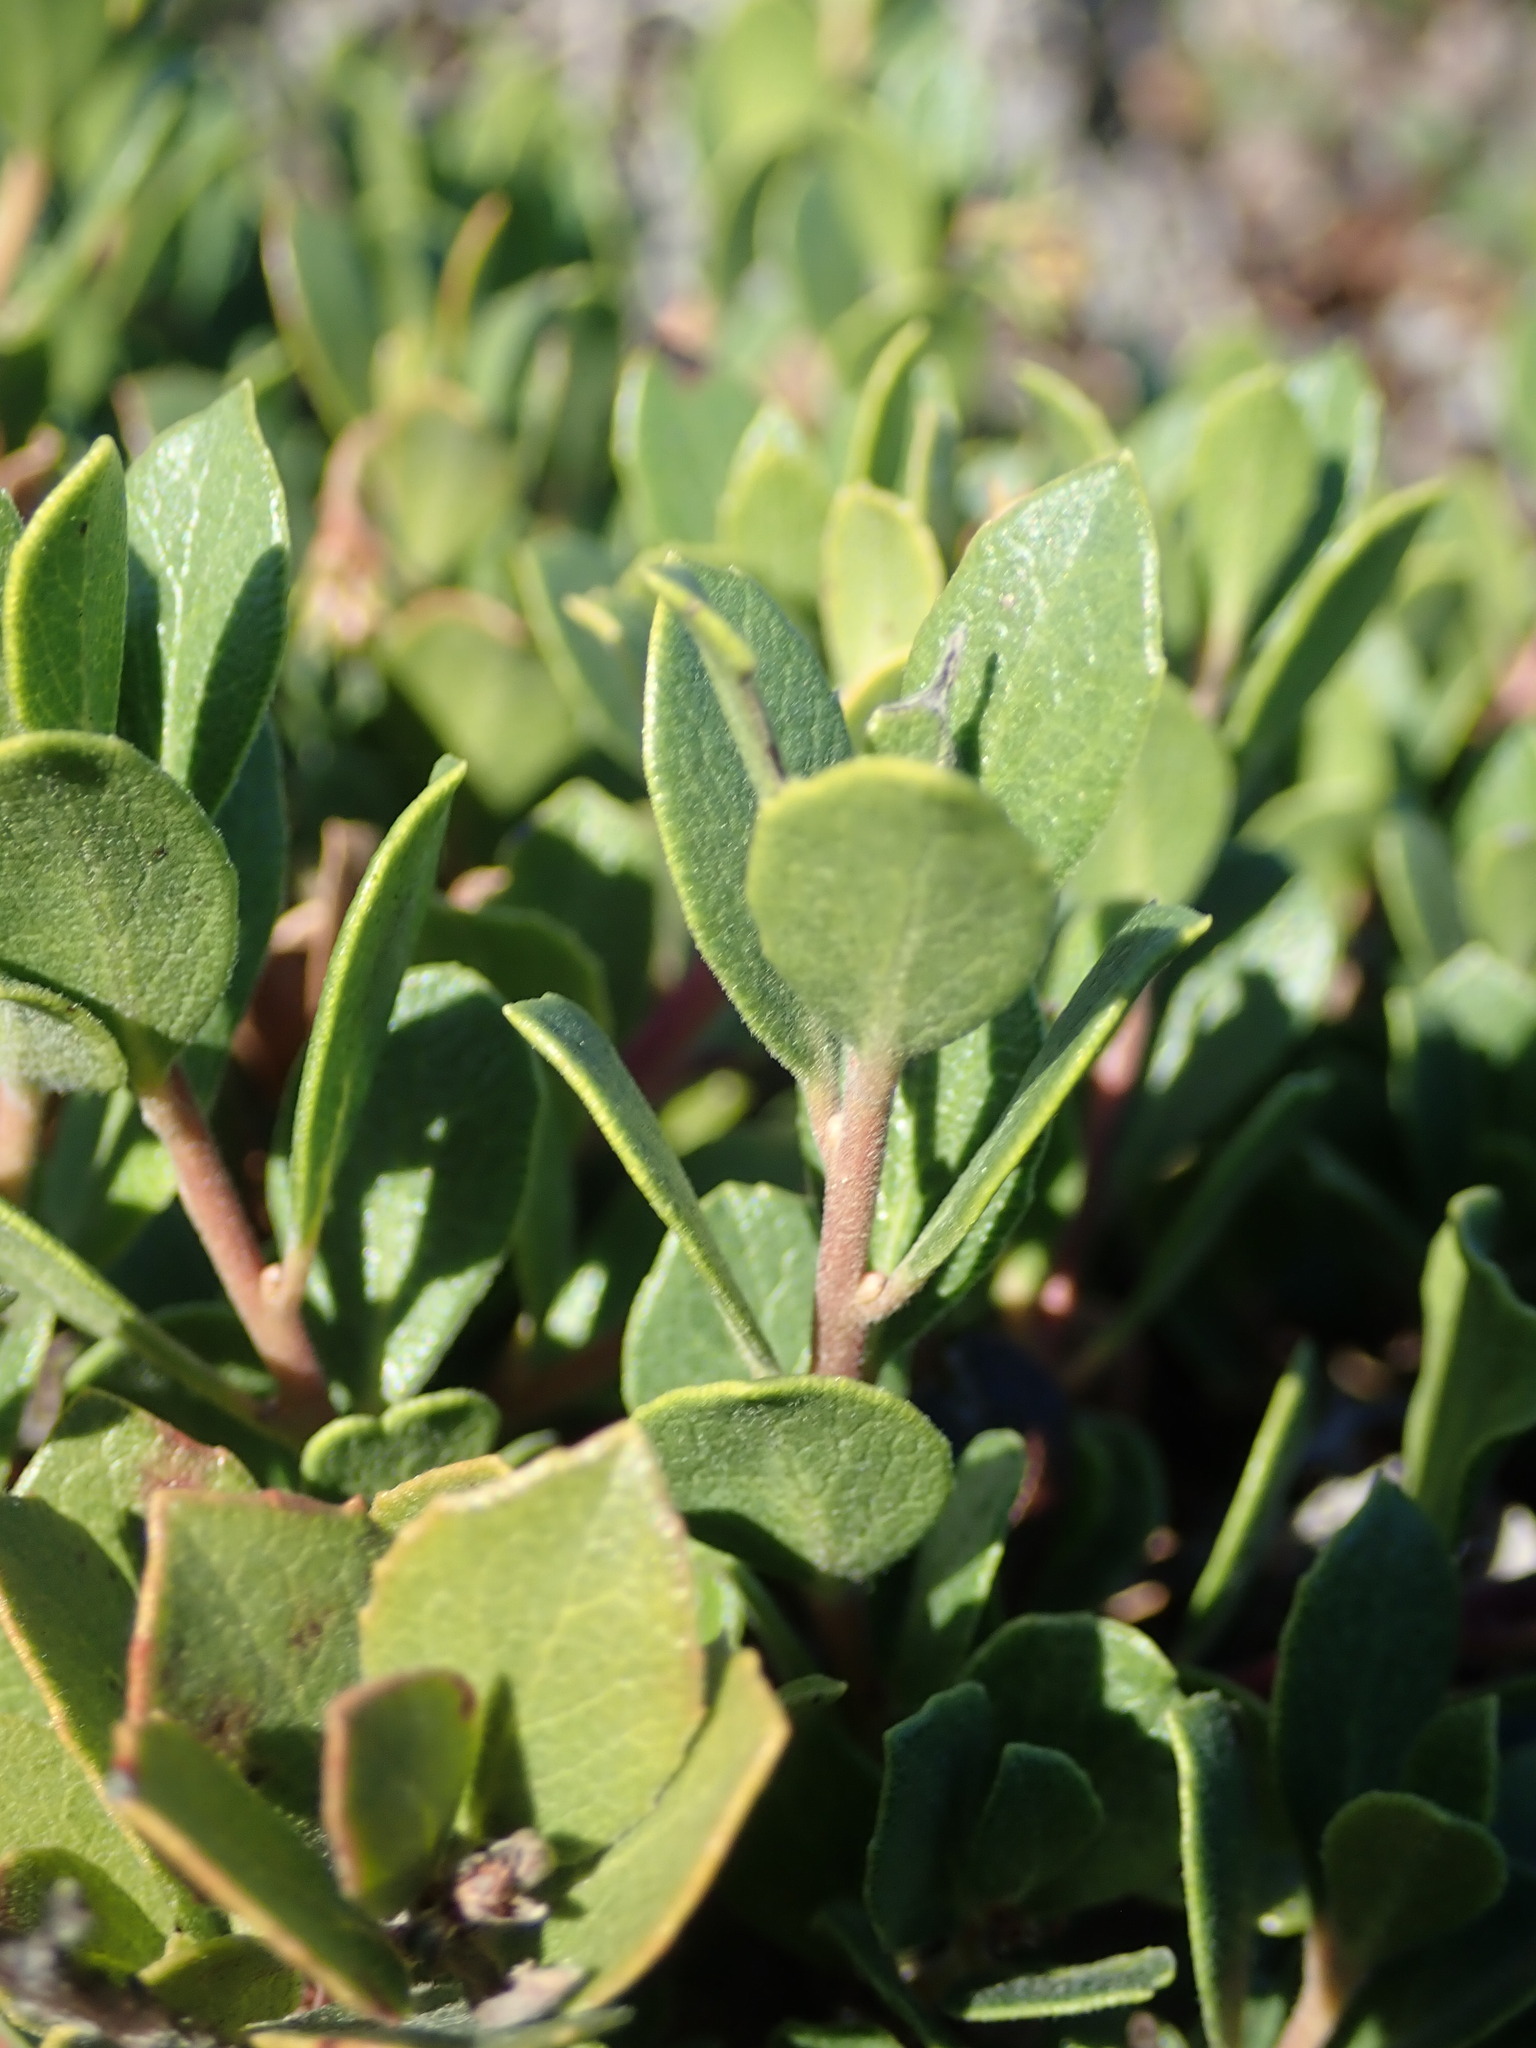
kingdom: Plantae
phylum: Tracheophyta
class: Magnoliopsida
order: Ericales
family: Ericaceae
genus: Arctostaphylos
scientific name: Arctostaphylos pacifica
